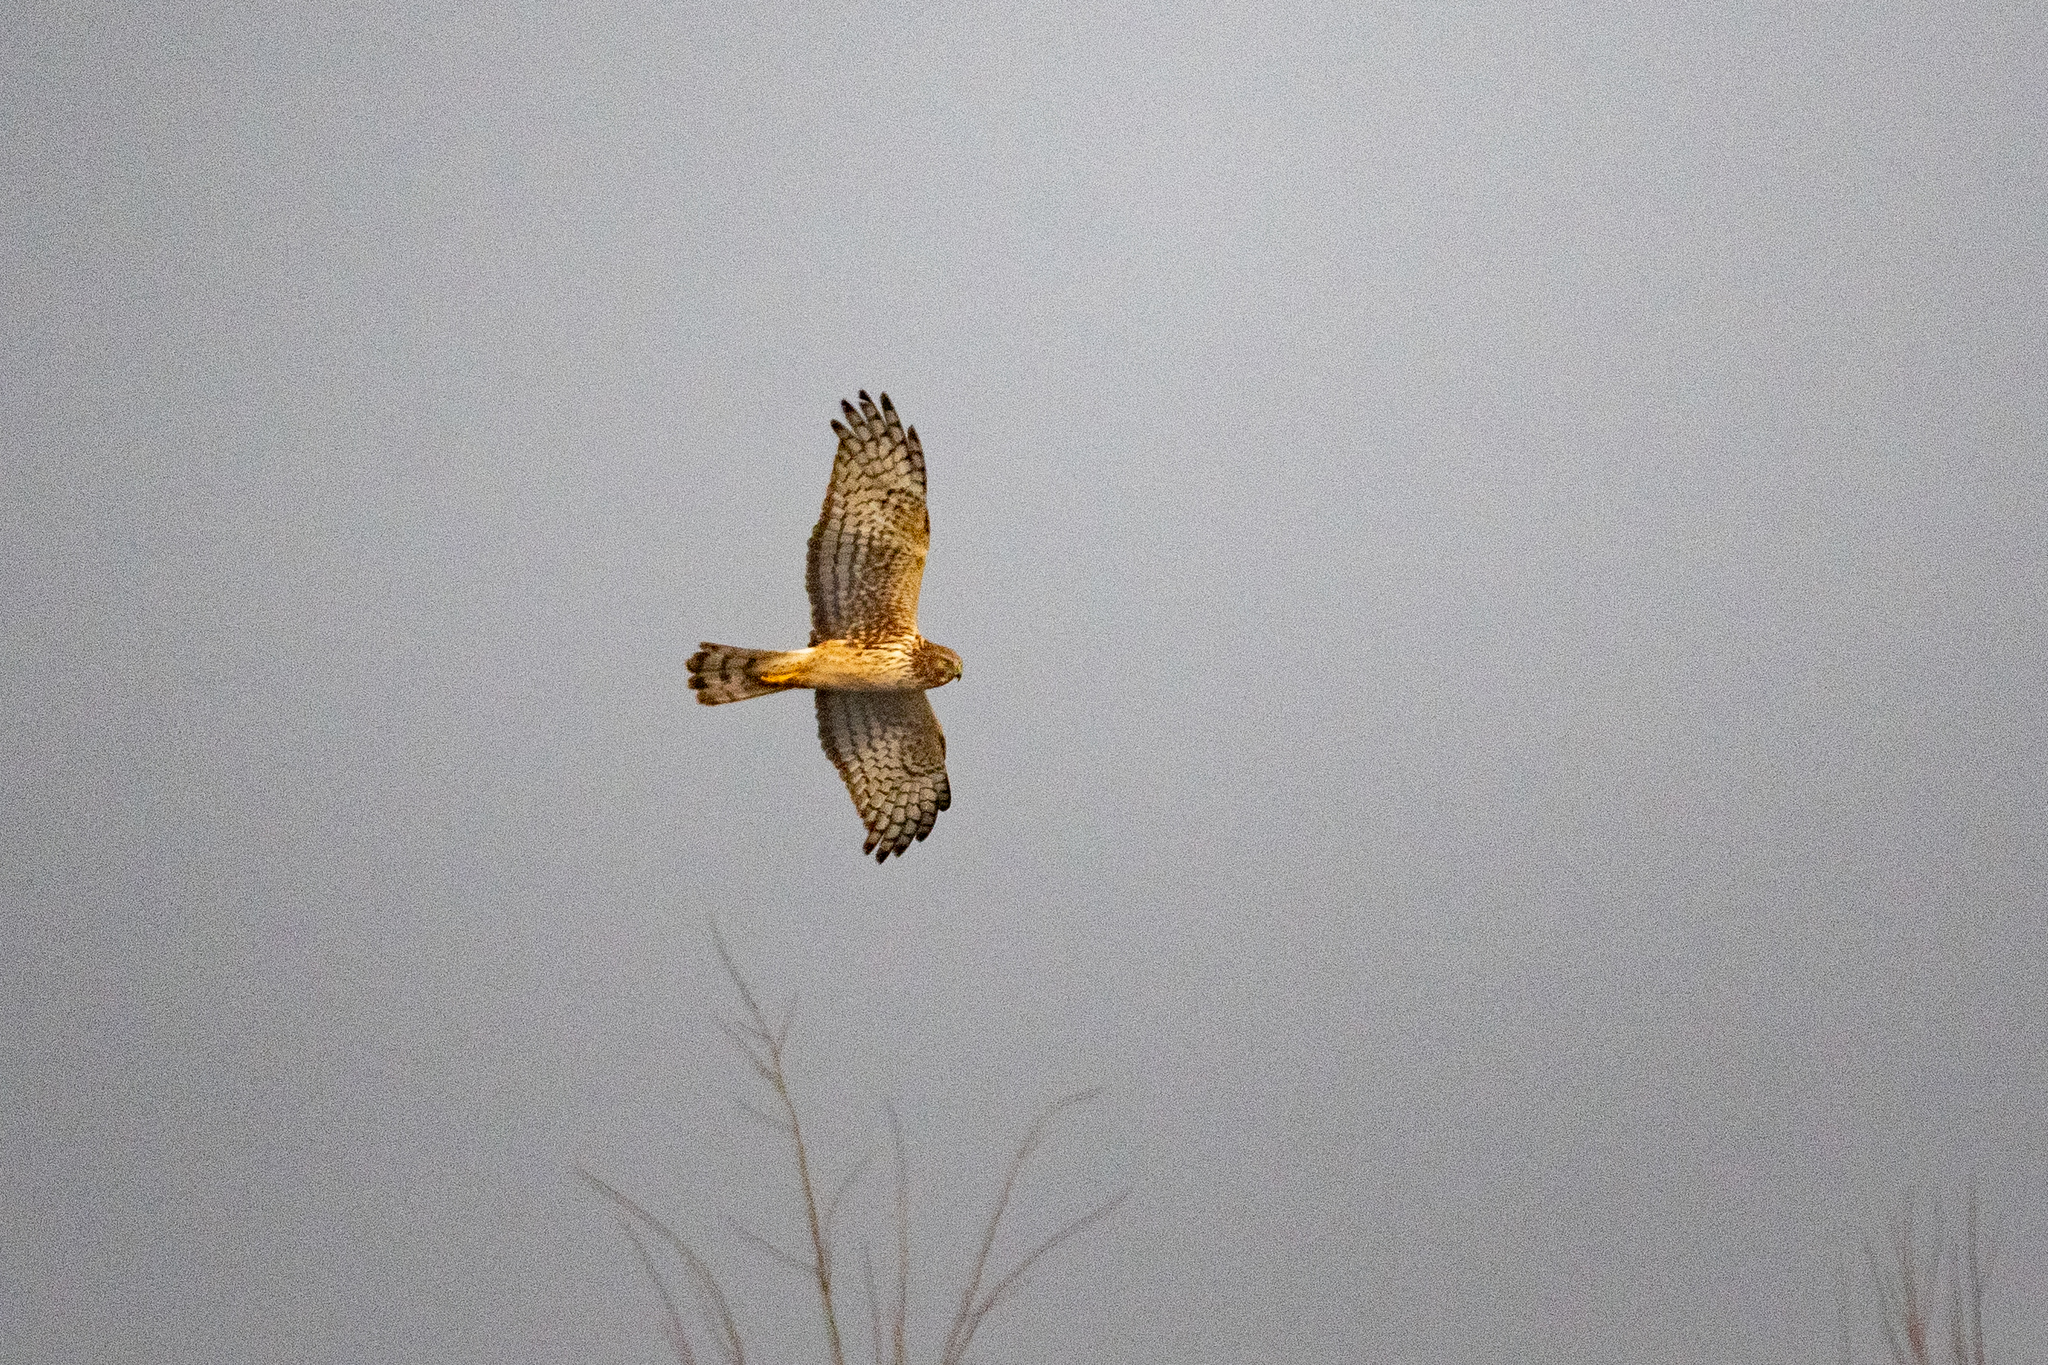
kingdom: Animalia
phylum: Chordata
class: Aves
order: Accipitriformes
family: Accipitridae
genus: Circus
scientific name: Circus cyaneus
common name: Hen harrier
